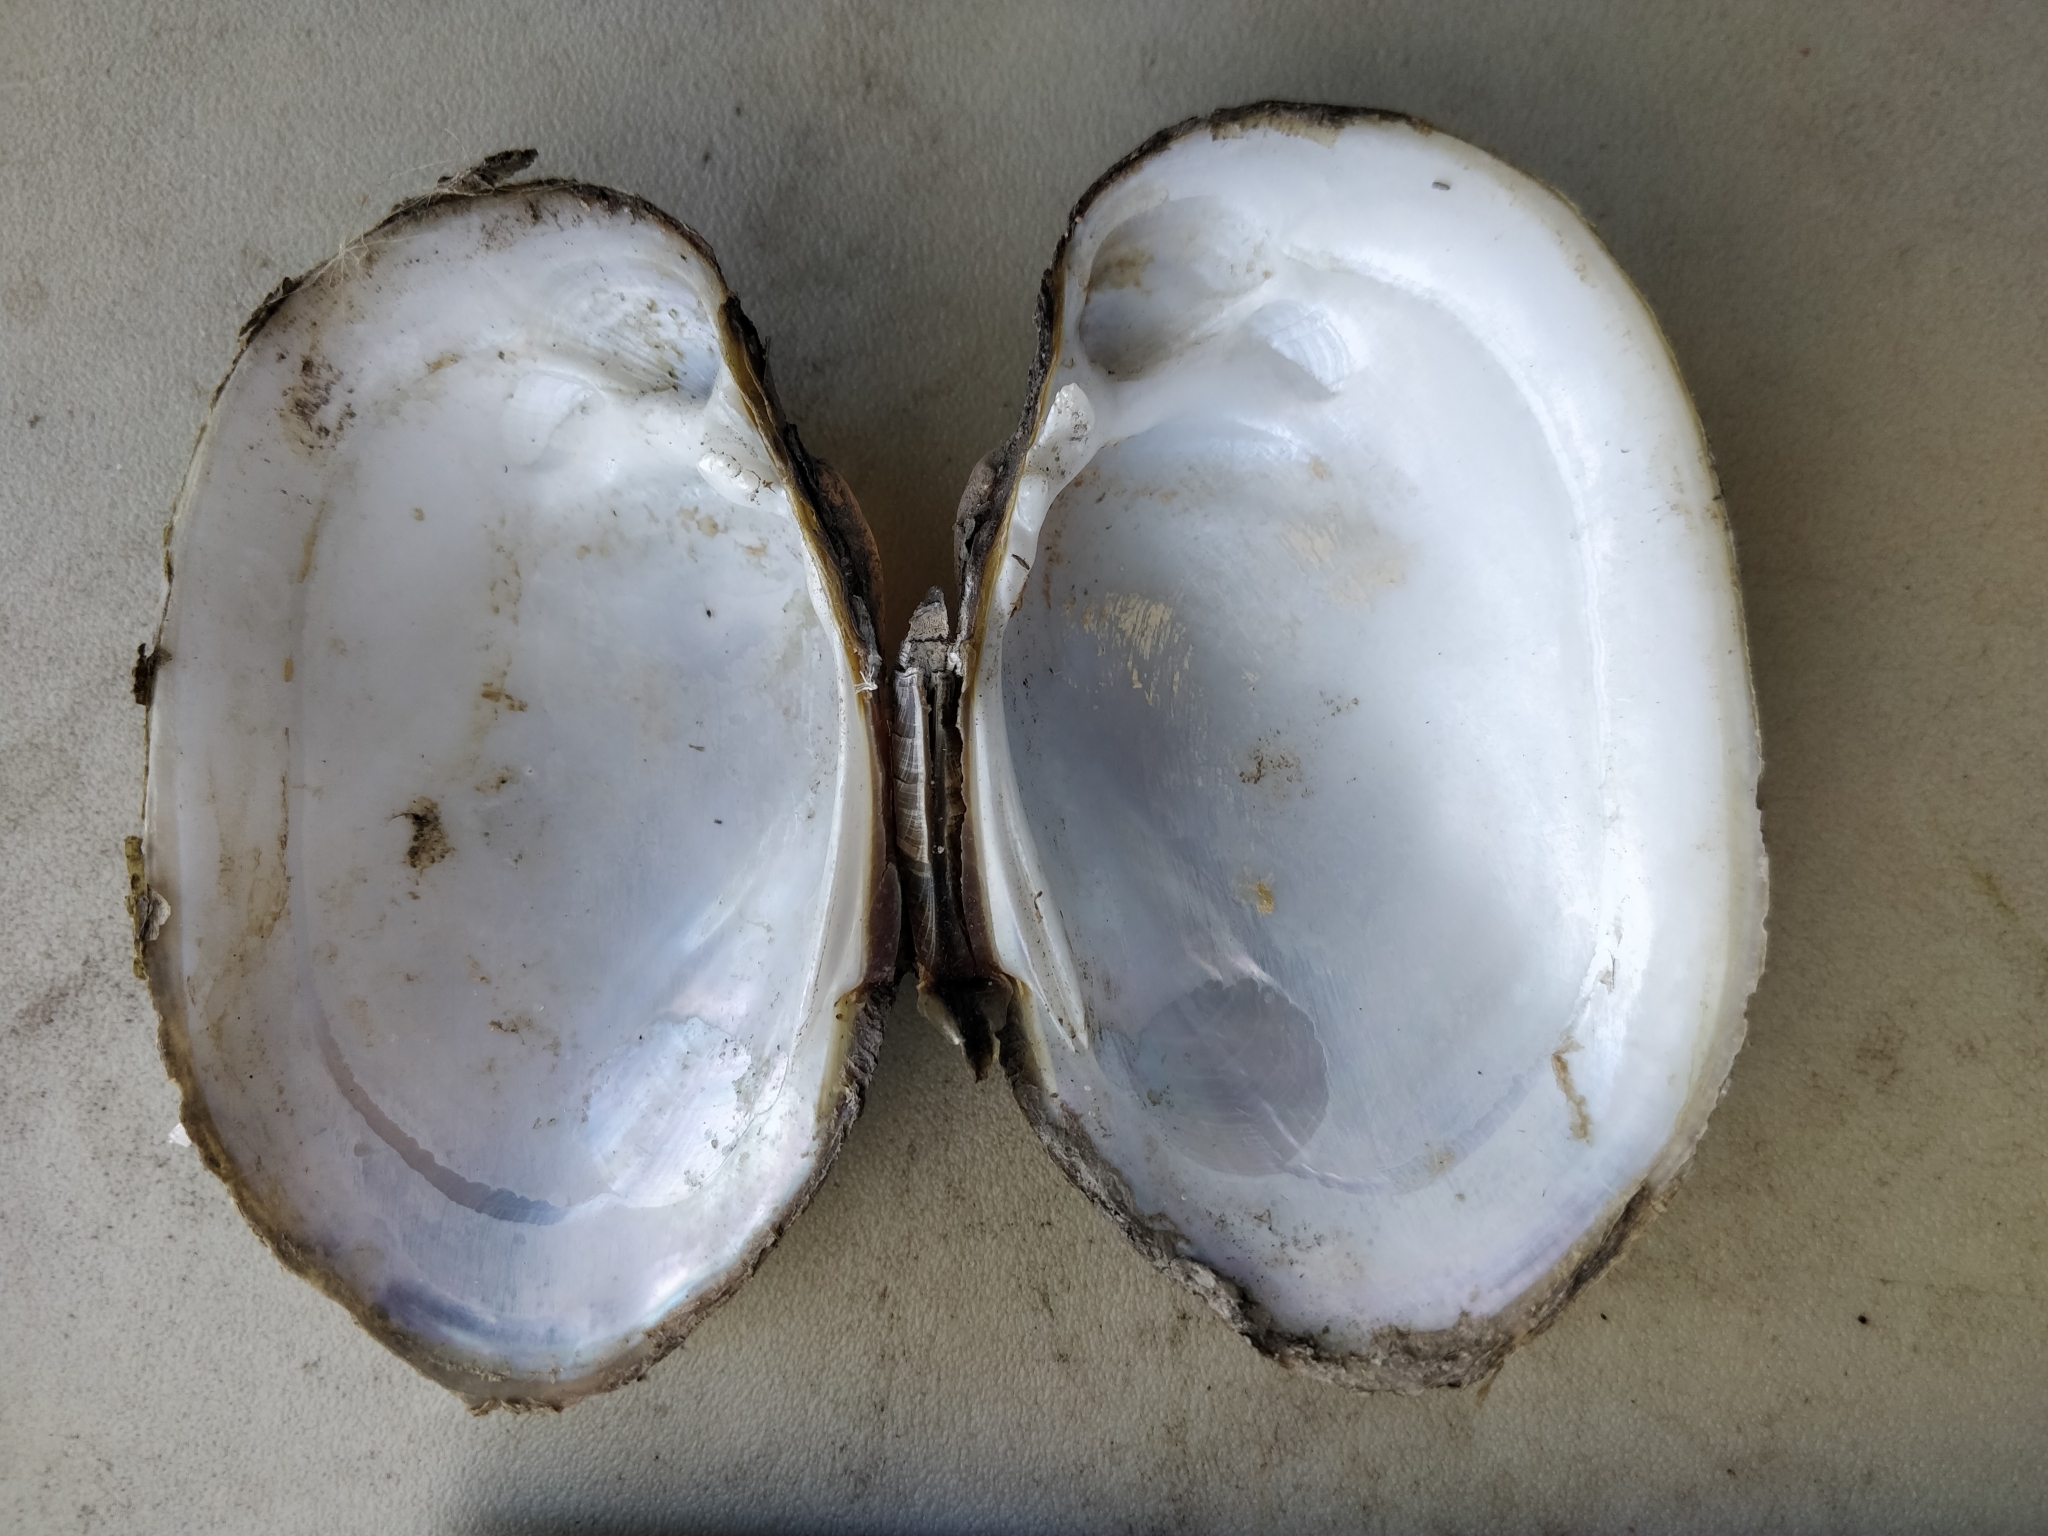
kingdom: Animalia
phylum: Mollusca
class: Bivalvia
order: Unionida
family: Unionidae
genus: Lampsilis
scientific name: Lampsilis cardium
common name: Plain pocketbook
